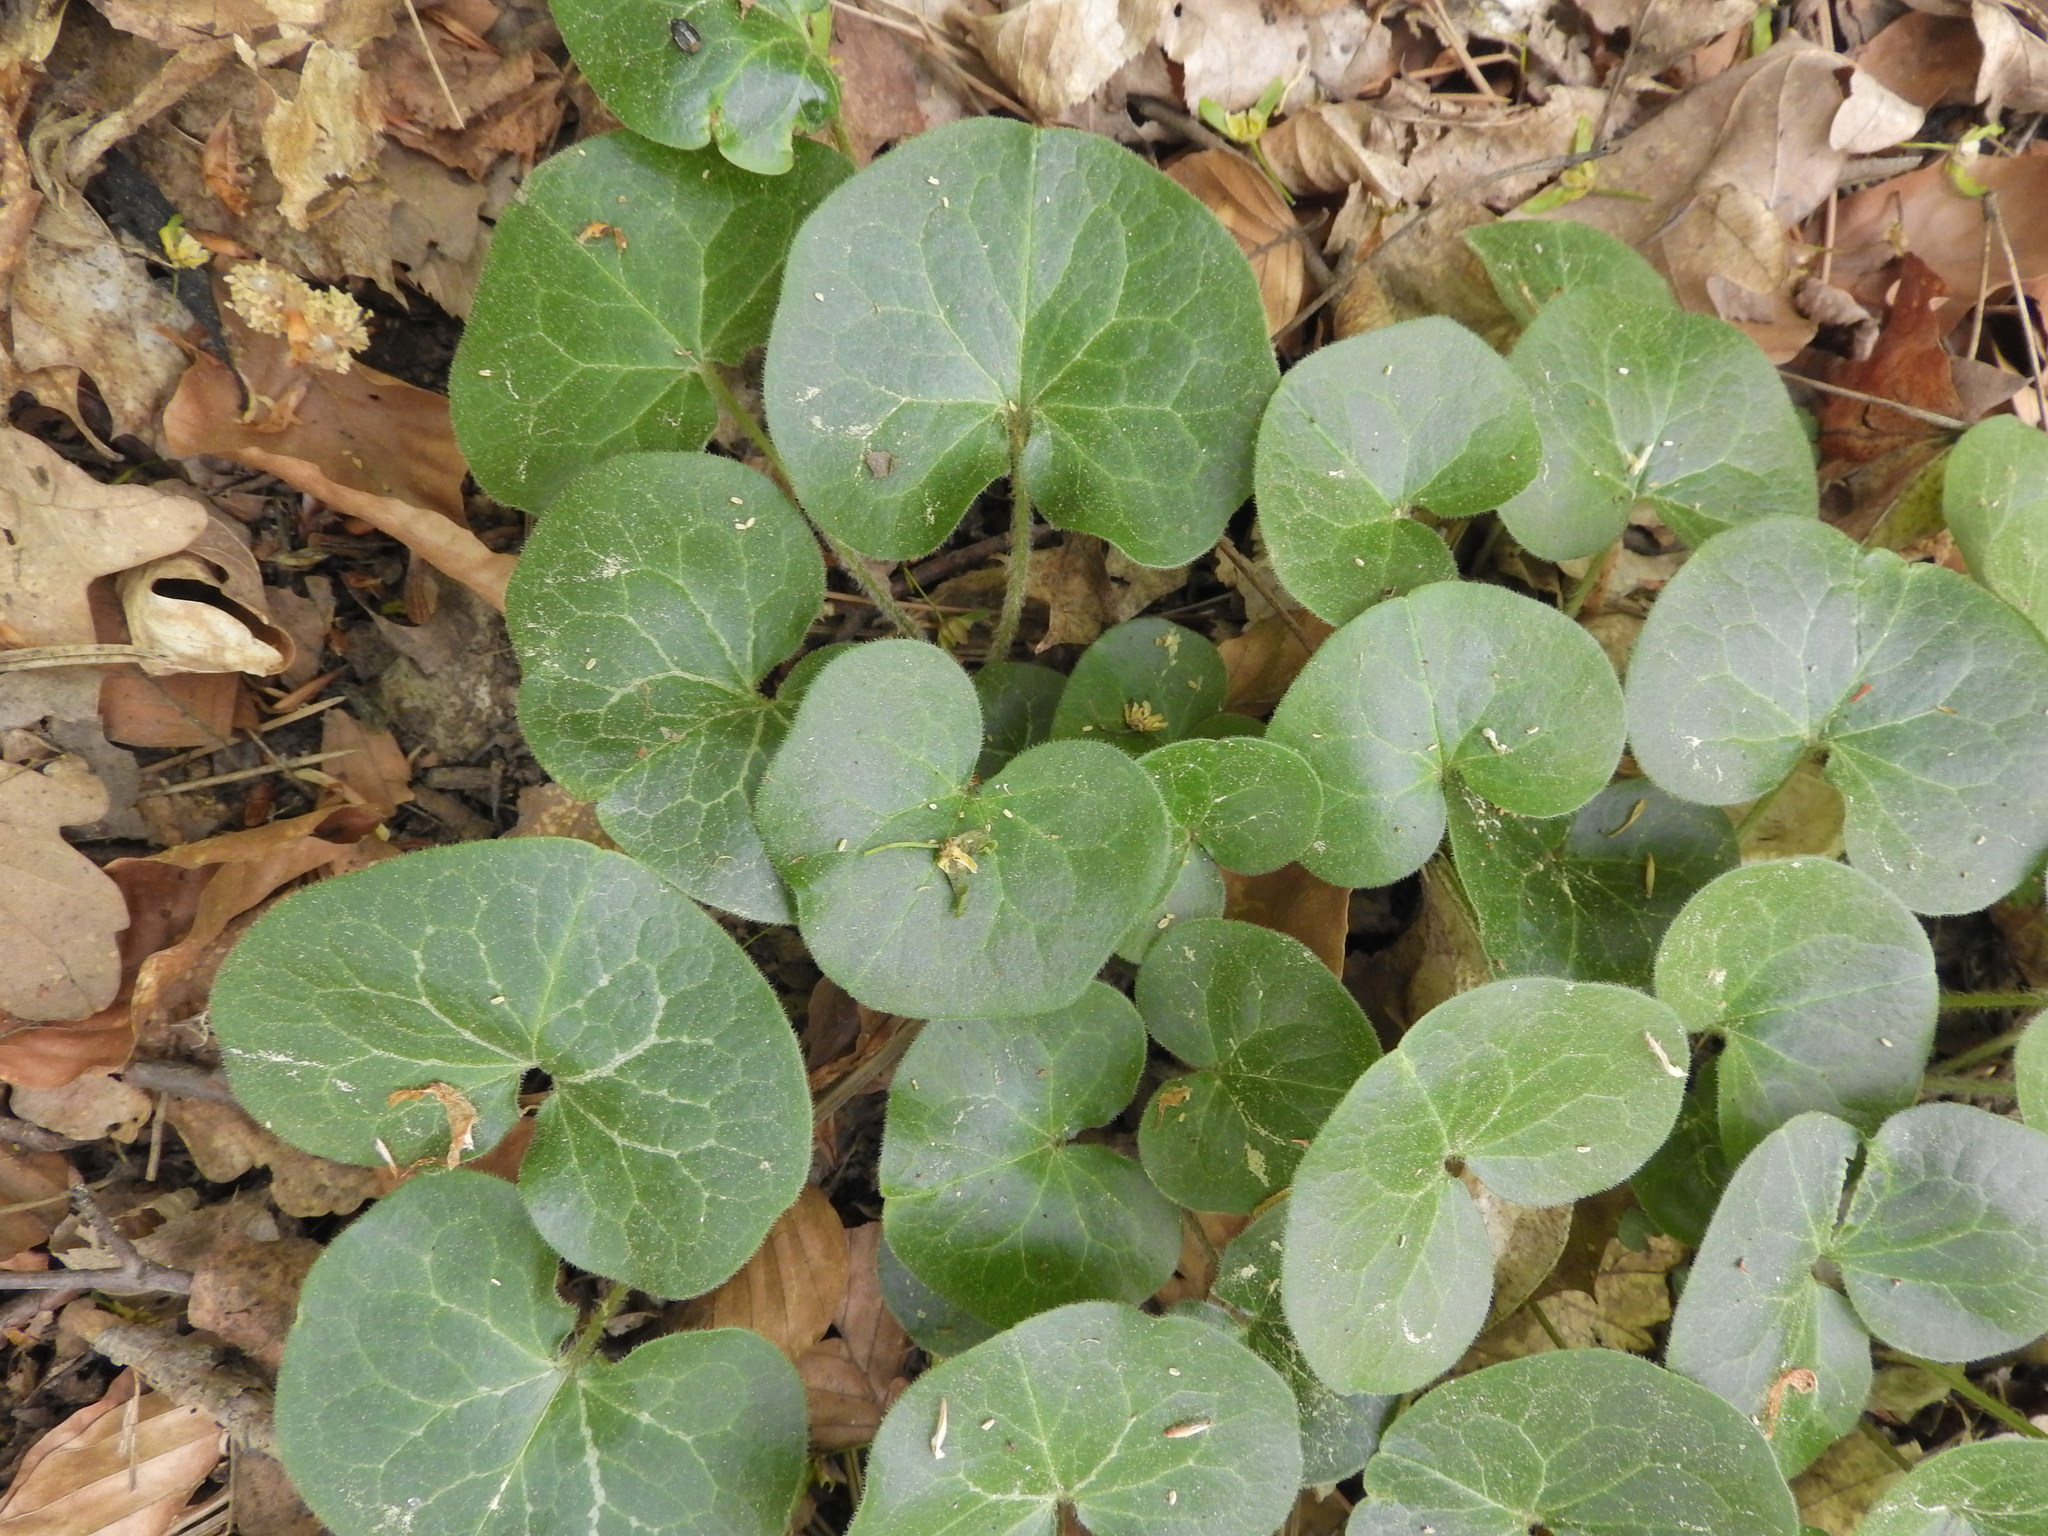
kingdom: Plantae
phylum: Tracheophyta
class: Magnoliopsida
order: Piperales
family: Aristolochiaceae
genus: Asarum
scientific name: Asarum europaeum
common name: Asarabacca
